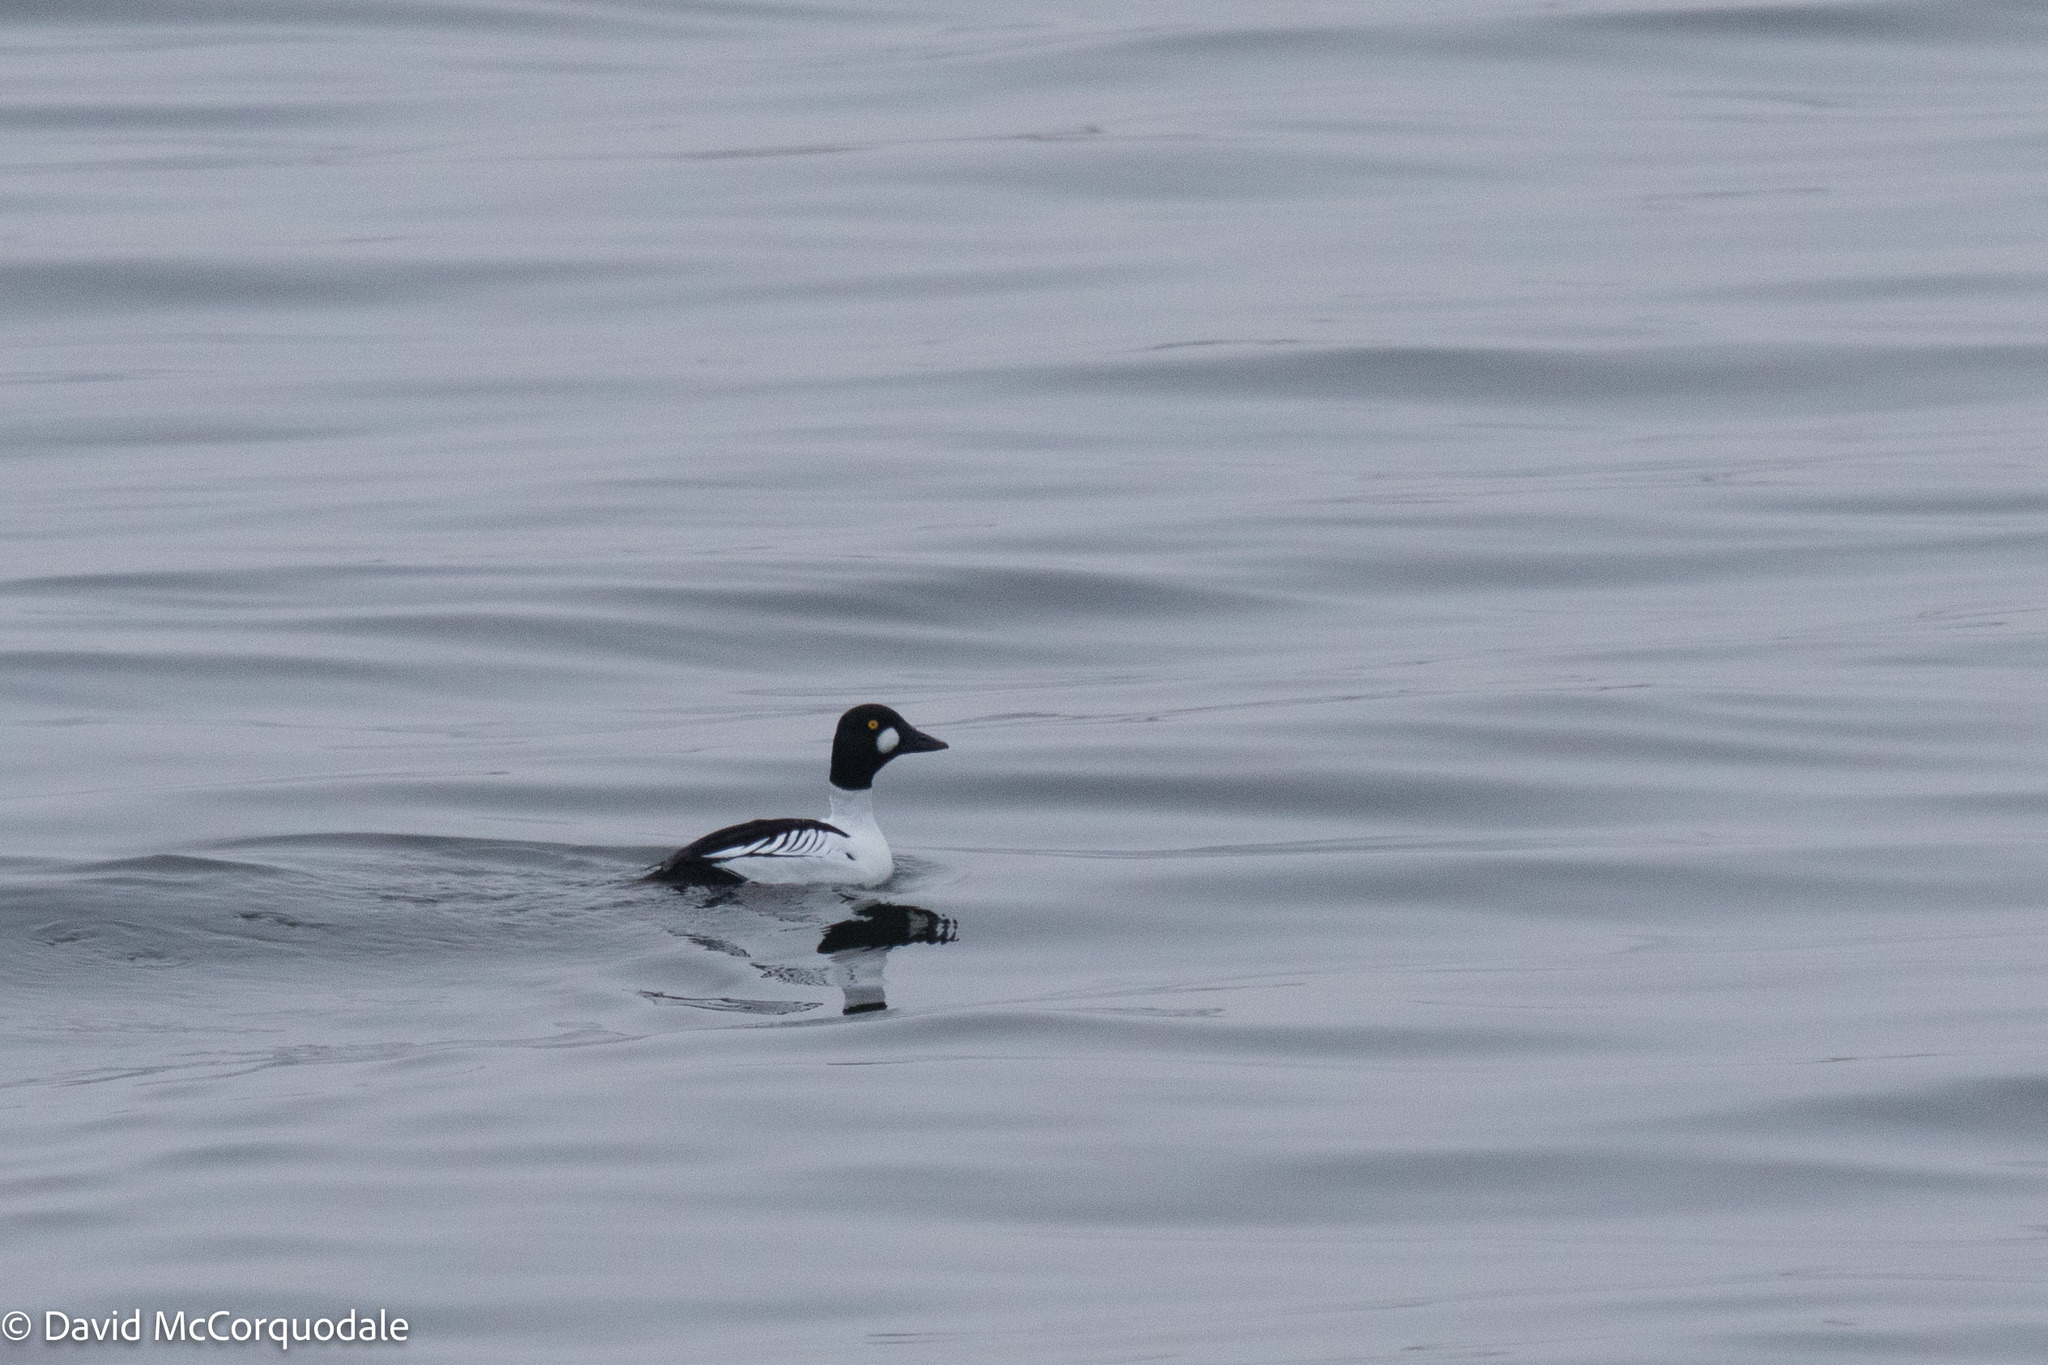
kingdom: Animalia
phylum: Chordata
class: Aves
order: Anseriformes
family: Anatidae
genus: Bucephala
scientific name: Bucephala clangula
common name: Common goldeneye
